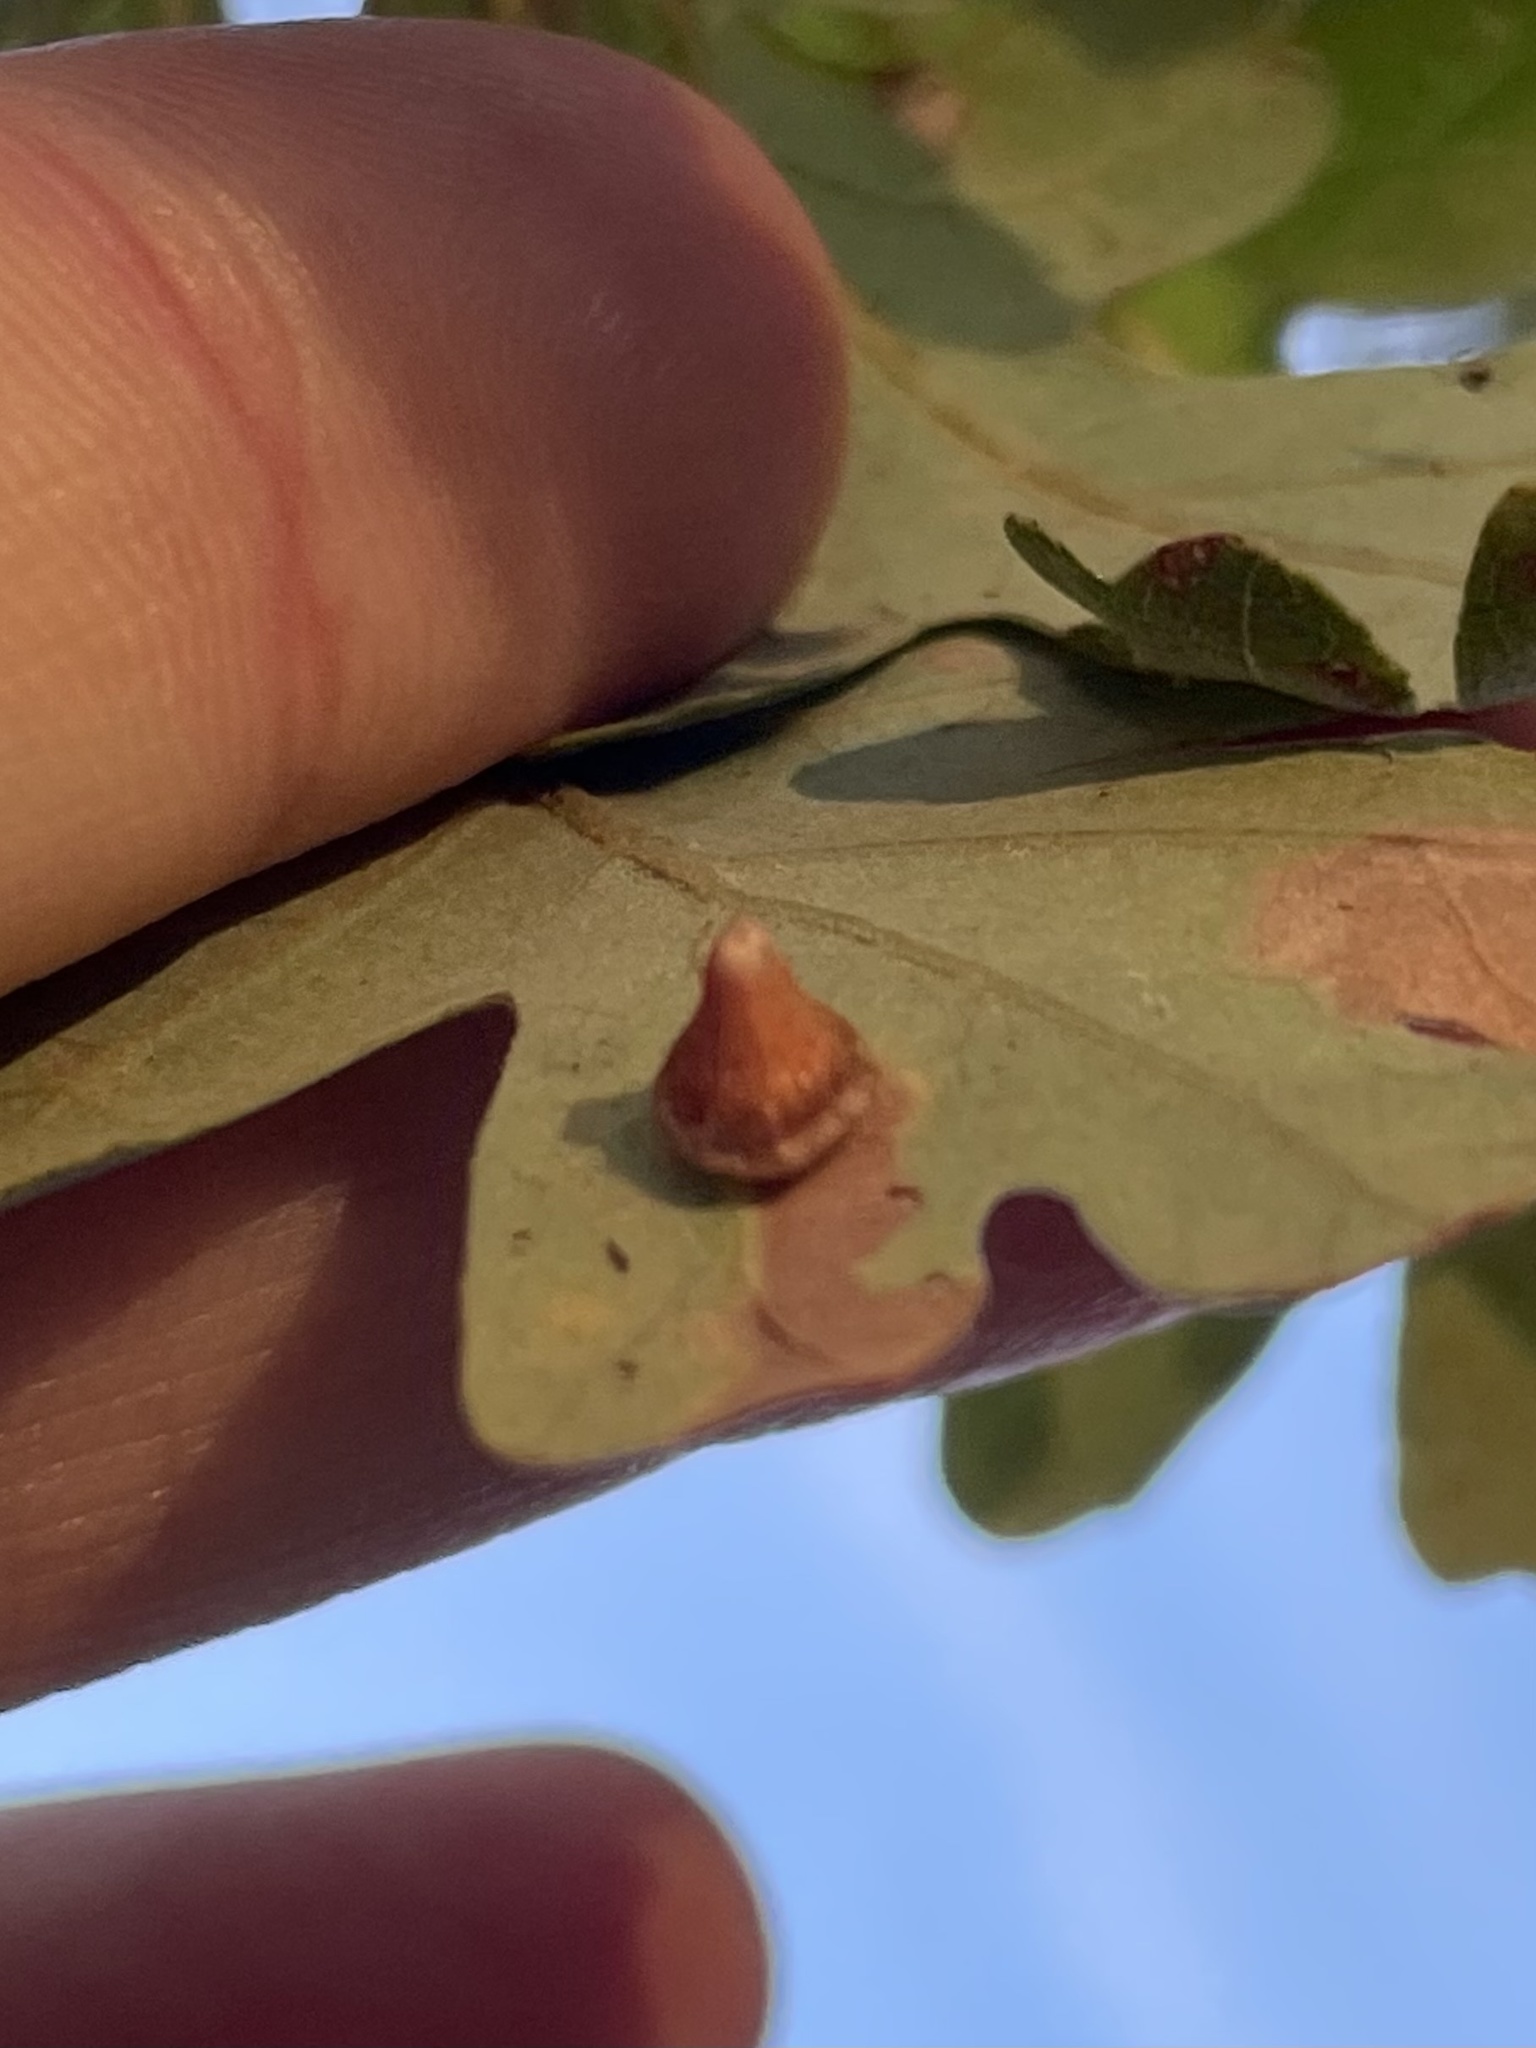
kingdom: Animalia
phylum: Arthropoda
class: Insecta
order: Hymenoptera
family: Cynipidae
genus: Andricus
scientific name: Andricus
